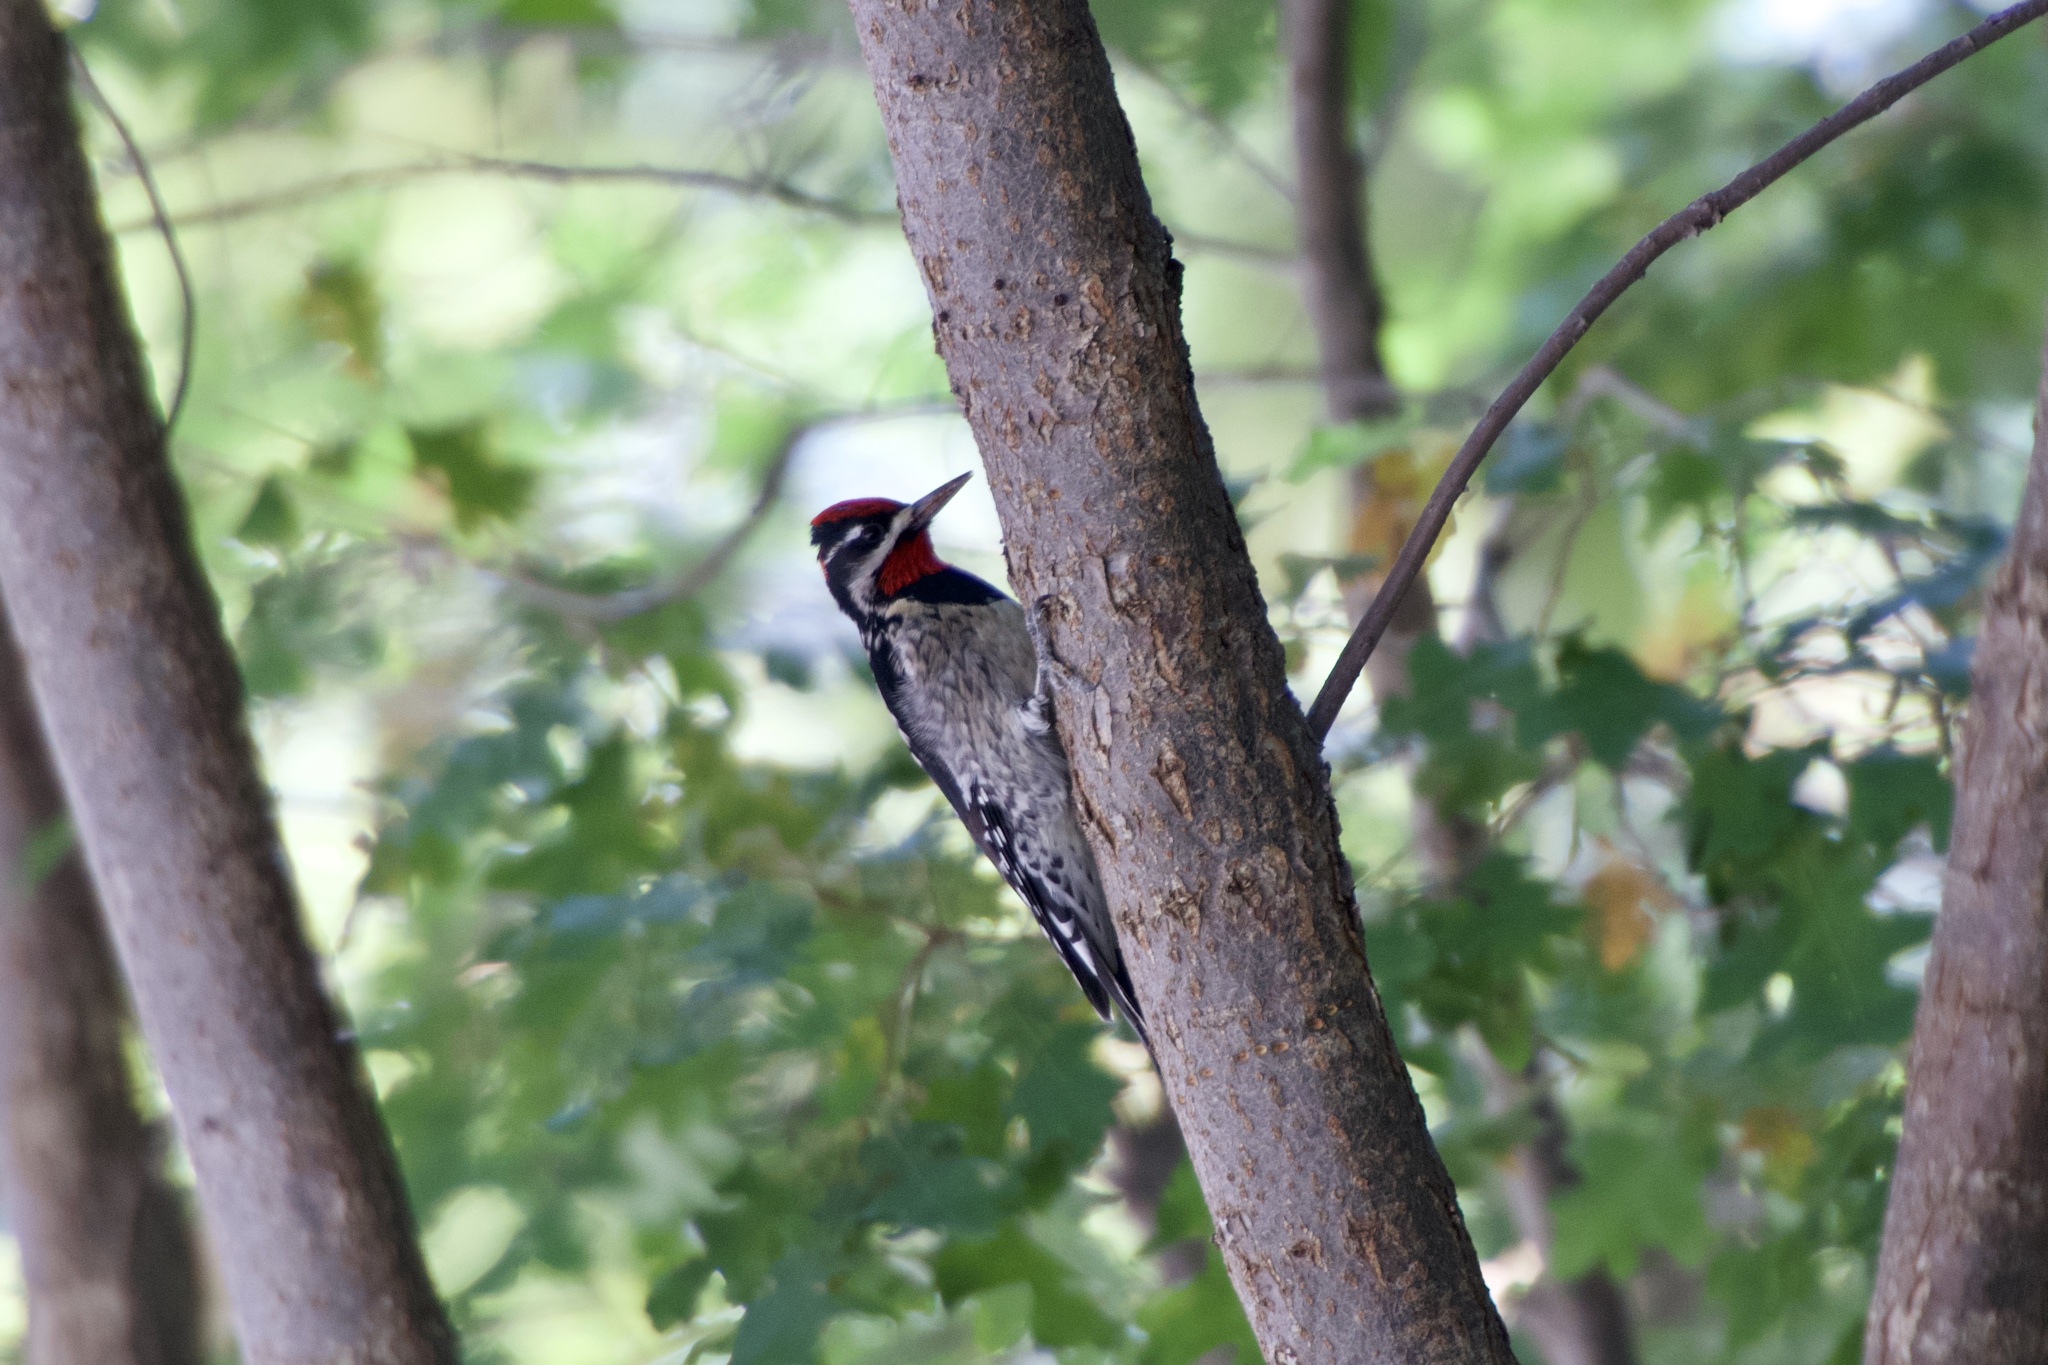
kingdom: Animalia
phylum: Chordata
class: Aves
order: Piciformes
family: Picidae
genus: Sphyrapicus
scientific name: Sphyrapicus nuchalis
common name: Red-naped sapsucker
